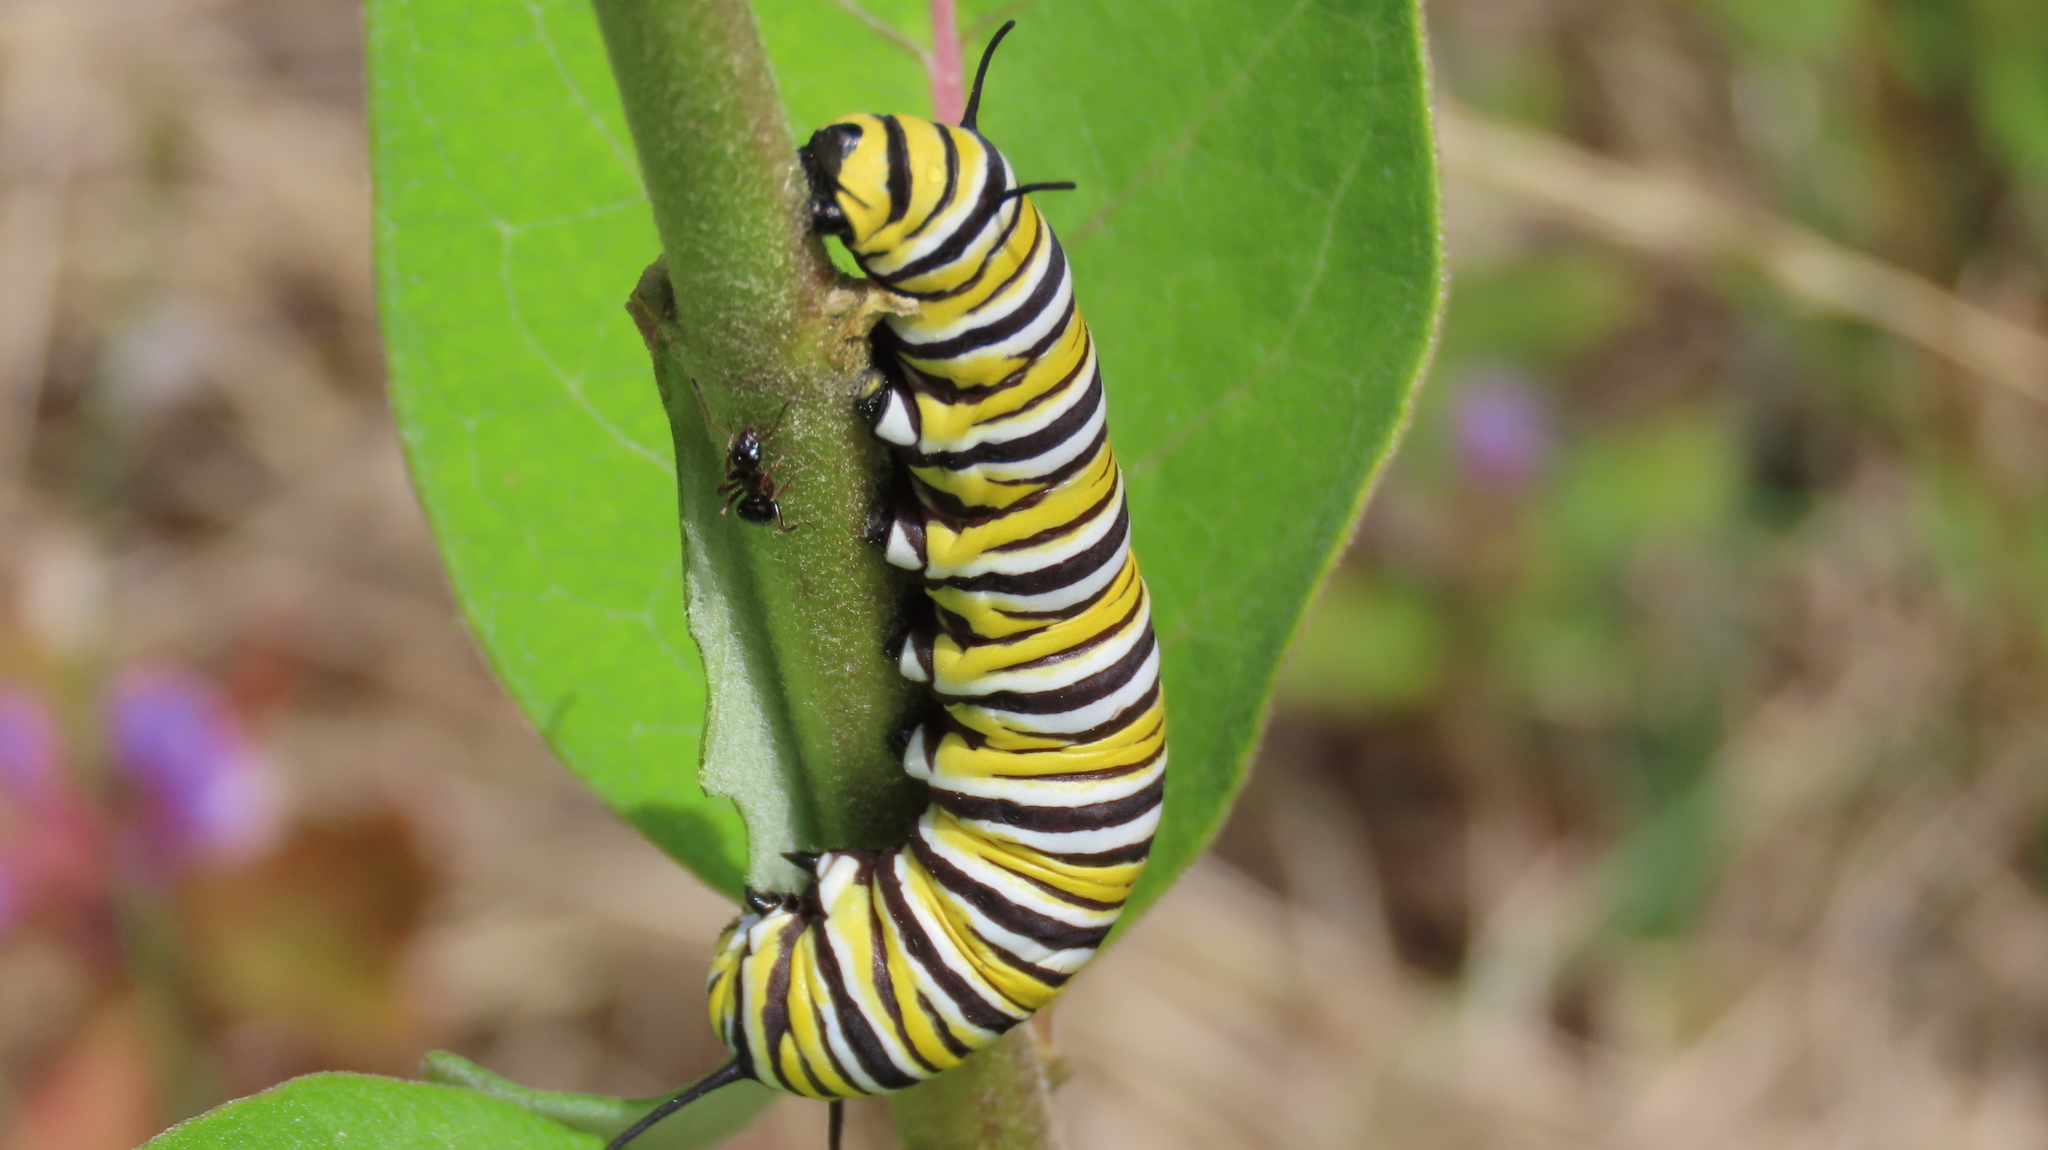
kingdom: Animalia
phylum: Arthropoda
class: Insecta
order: Lepidoptera
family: Nymphalidae
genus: Danaus
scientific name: Danaus plexippus
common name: Monarch
